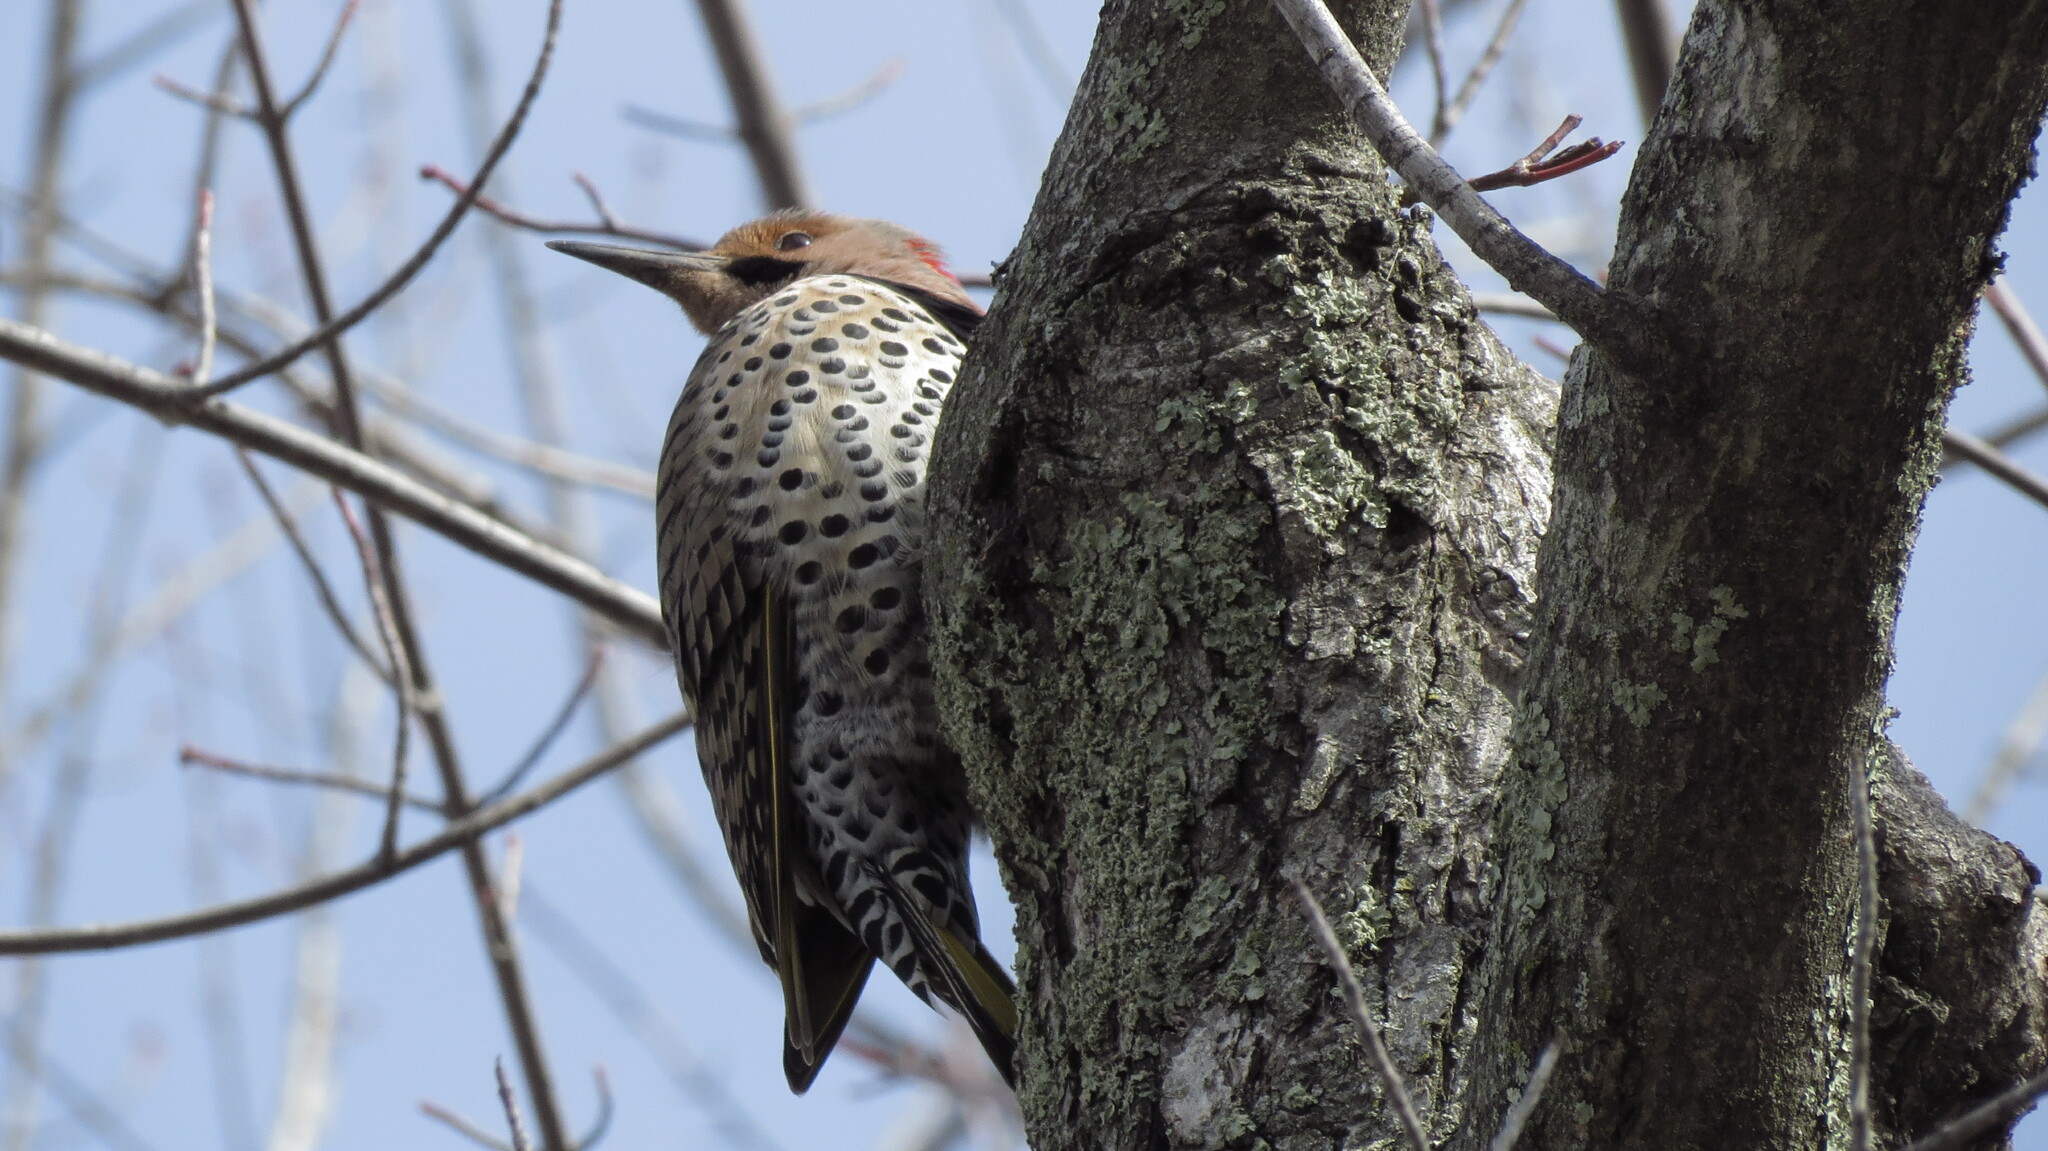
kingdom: Animalia
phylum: Chordata
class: Aves
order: Piciformes
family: Picidae
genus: Colaptes
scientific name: Colaptes auratus
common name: Northern flicker
